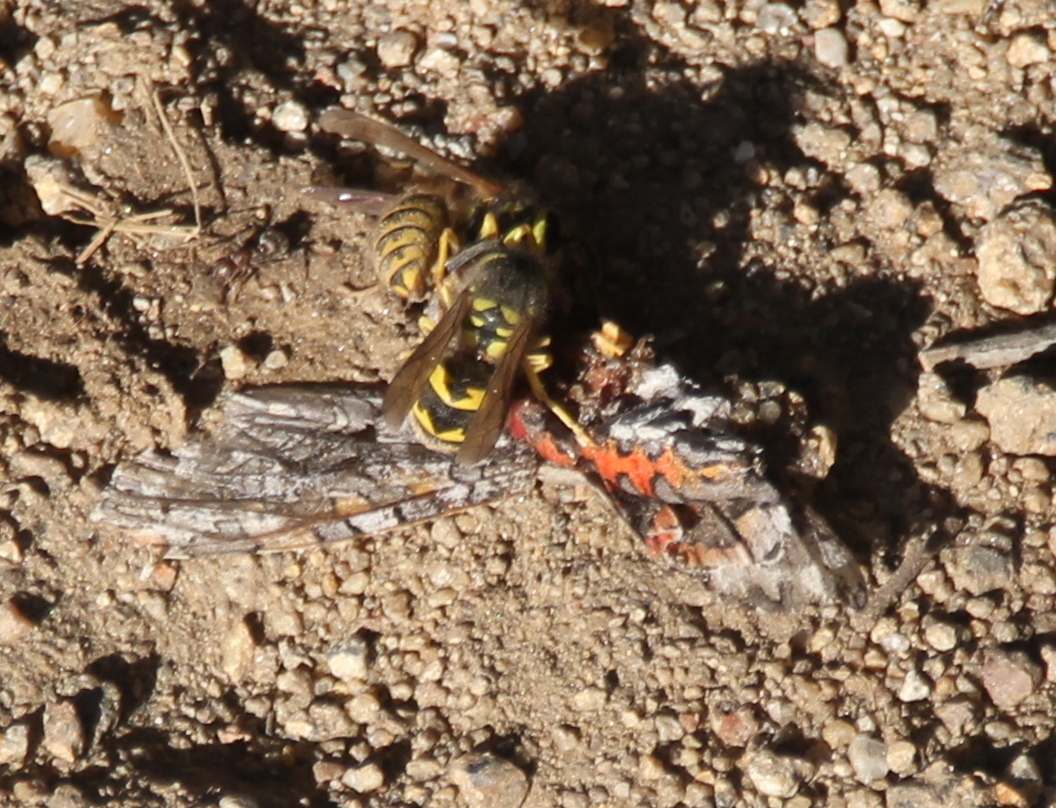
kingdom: Animalia
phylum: Arthropoda
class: Insecta
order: Hymenoptera
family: Vespidae
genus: Vespula
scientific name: Vespula pensylvanica
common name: Western yellowjacket
